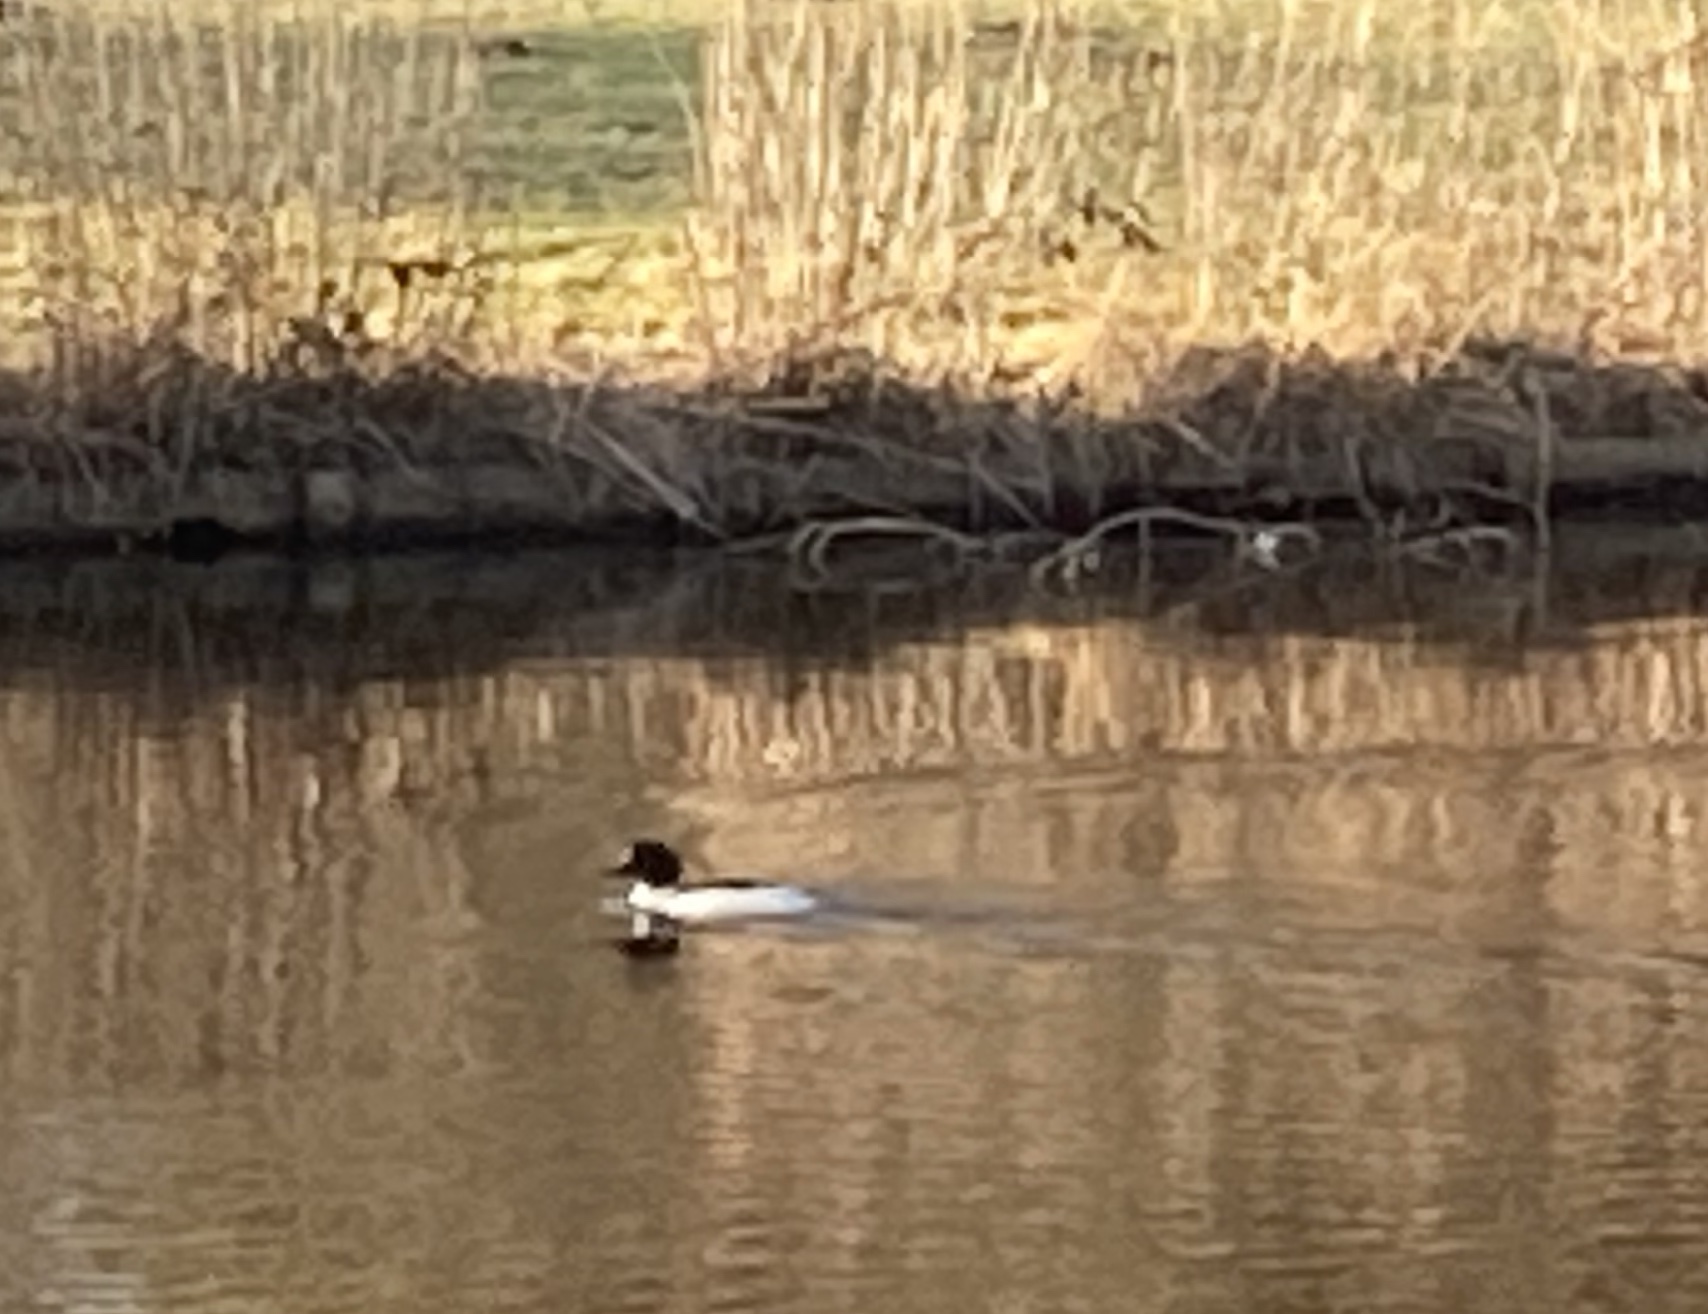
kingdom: Animalia
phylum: Chordata
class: Aves
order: Anseriformes
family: Anatidae
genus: Mergus
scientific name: Mergus merganser
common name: Common merganser
